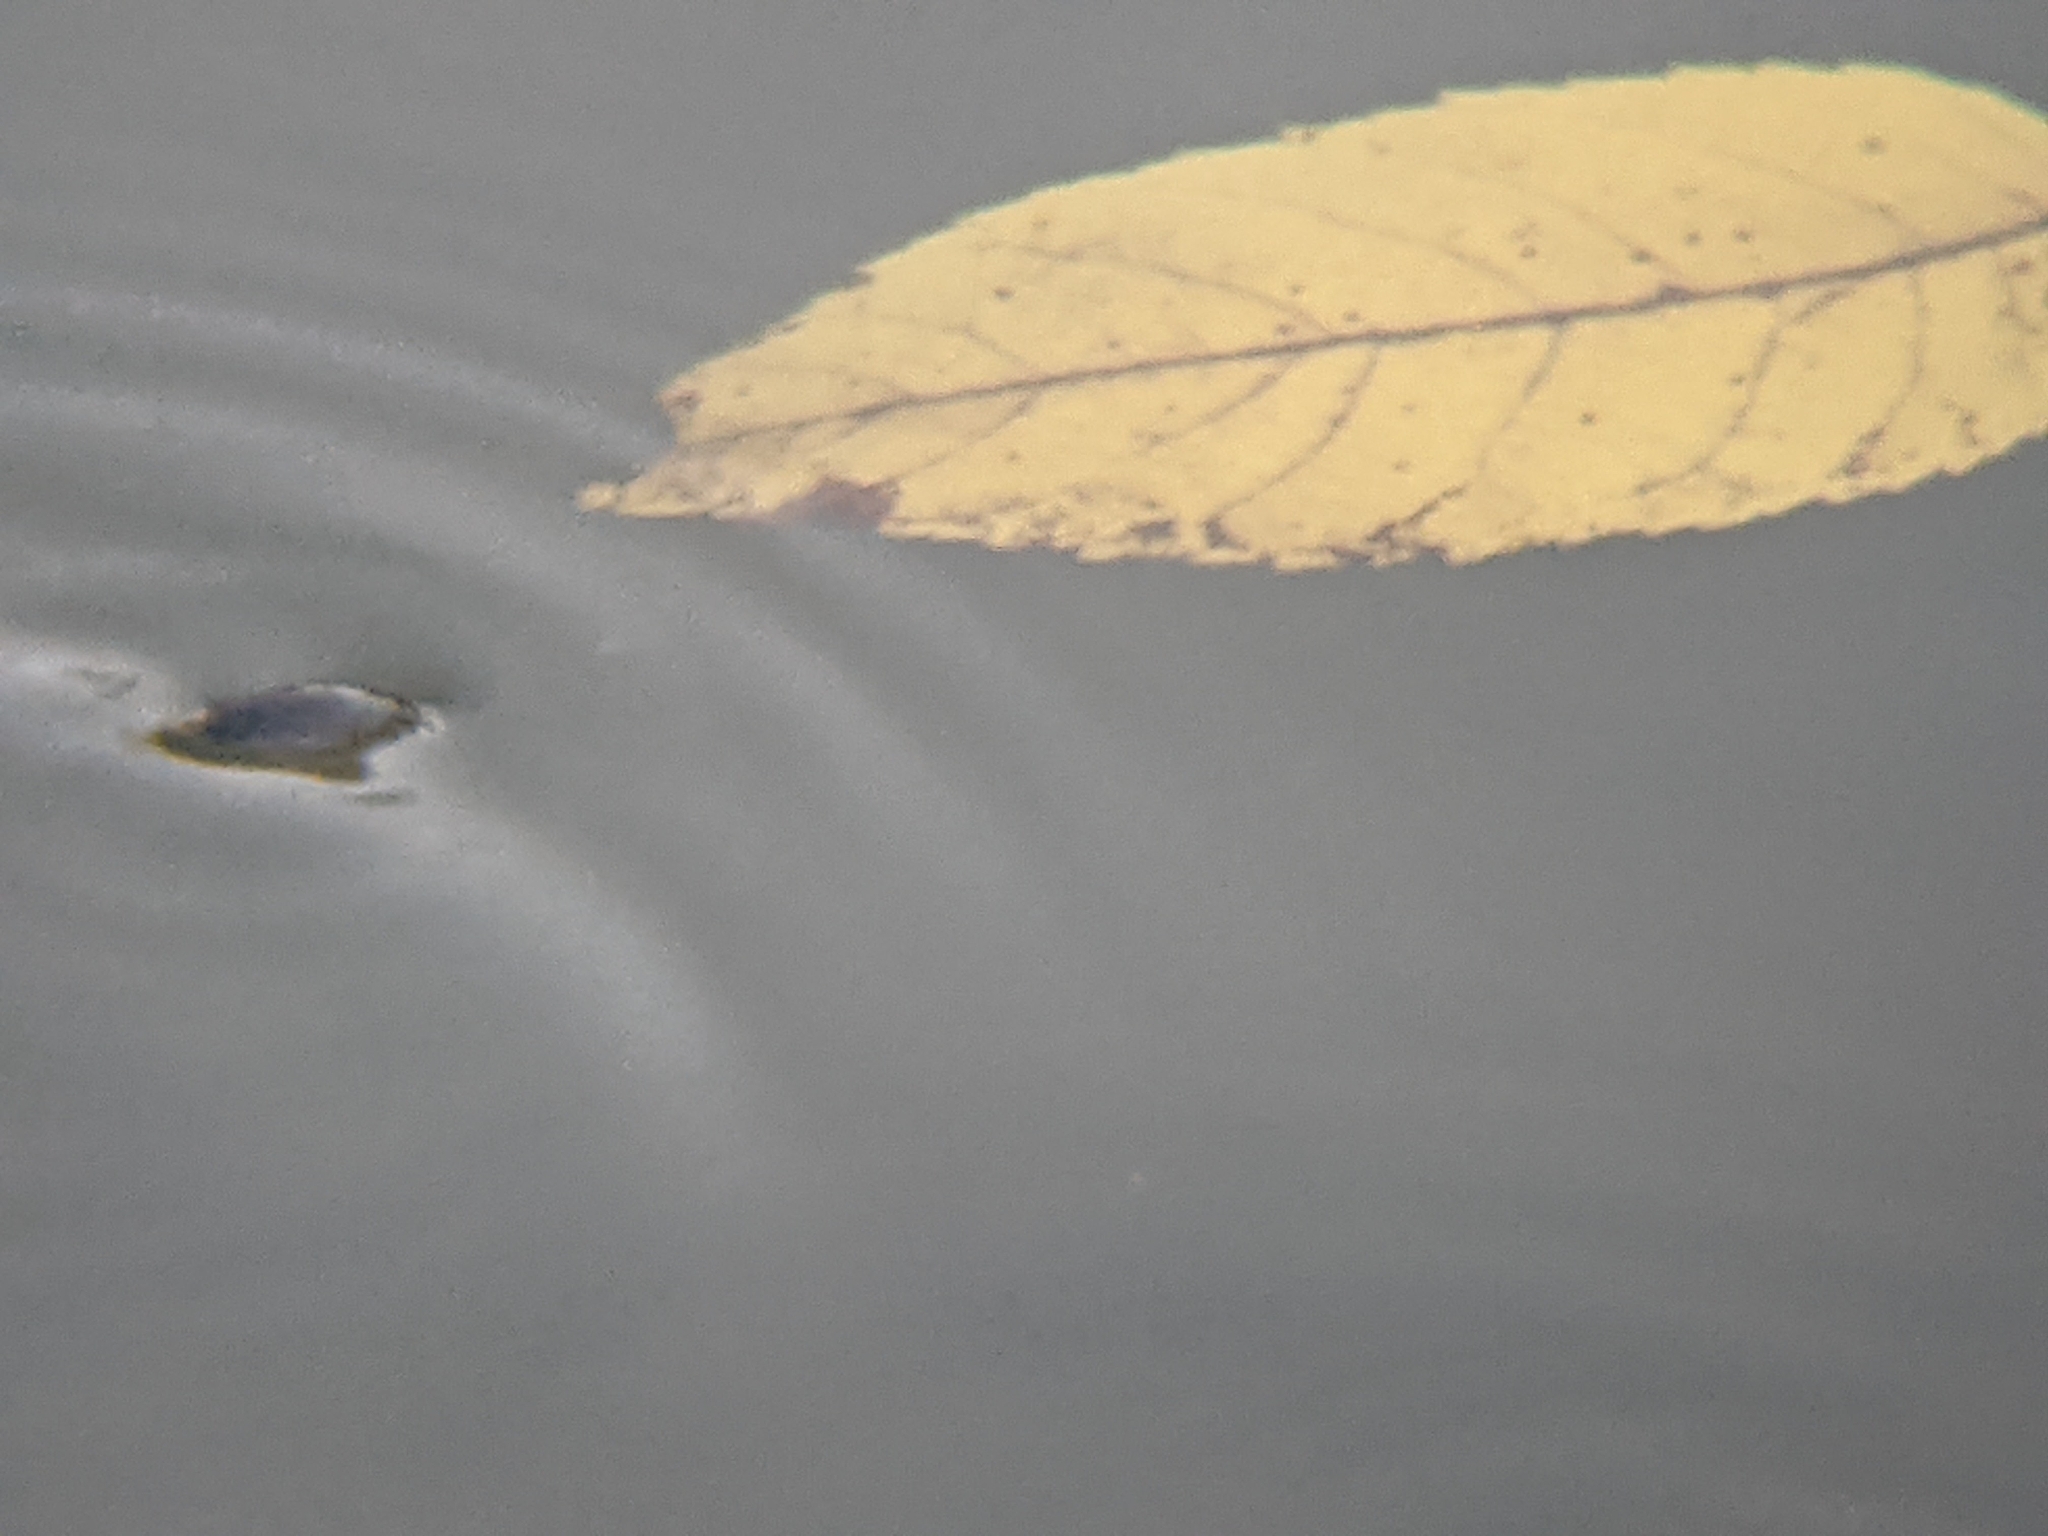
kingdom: Animalia
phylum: Arthropoda
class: Insecta
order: Coleoptera
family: Gyrinidae
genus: Dineutus
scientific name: Dineutus
